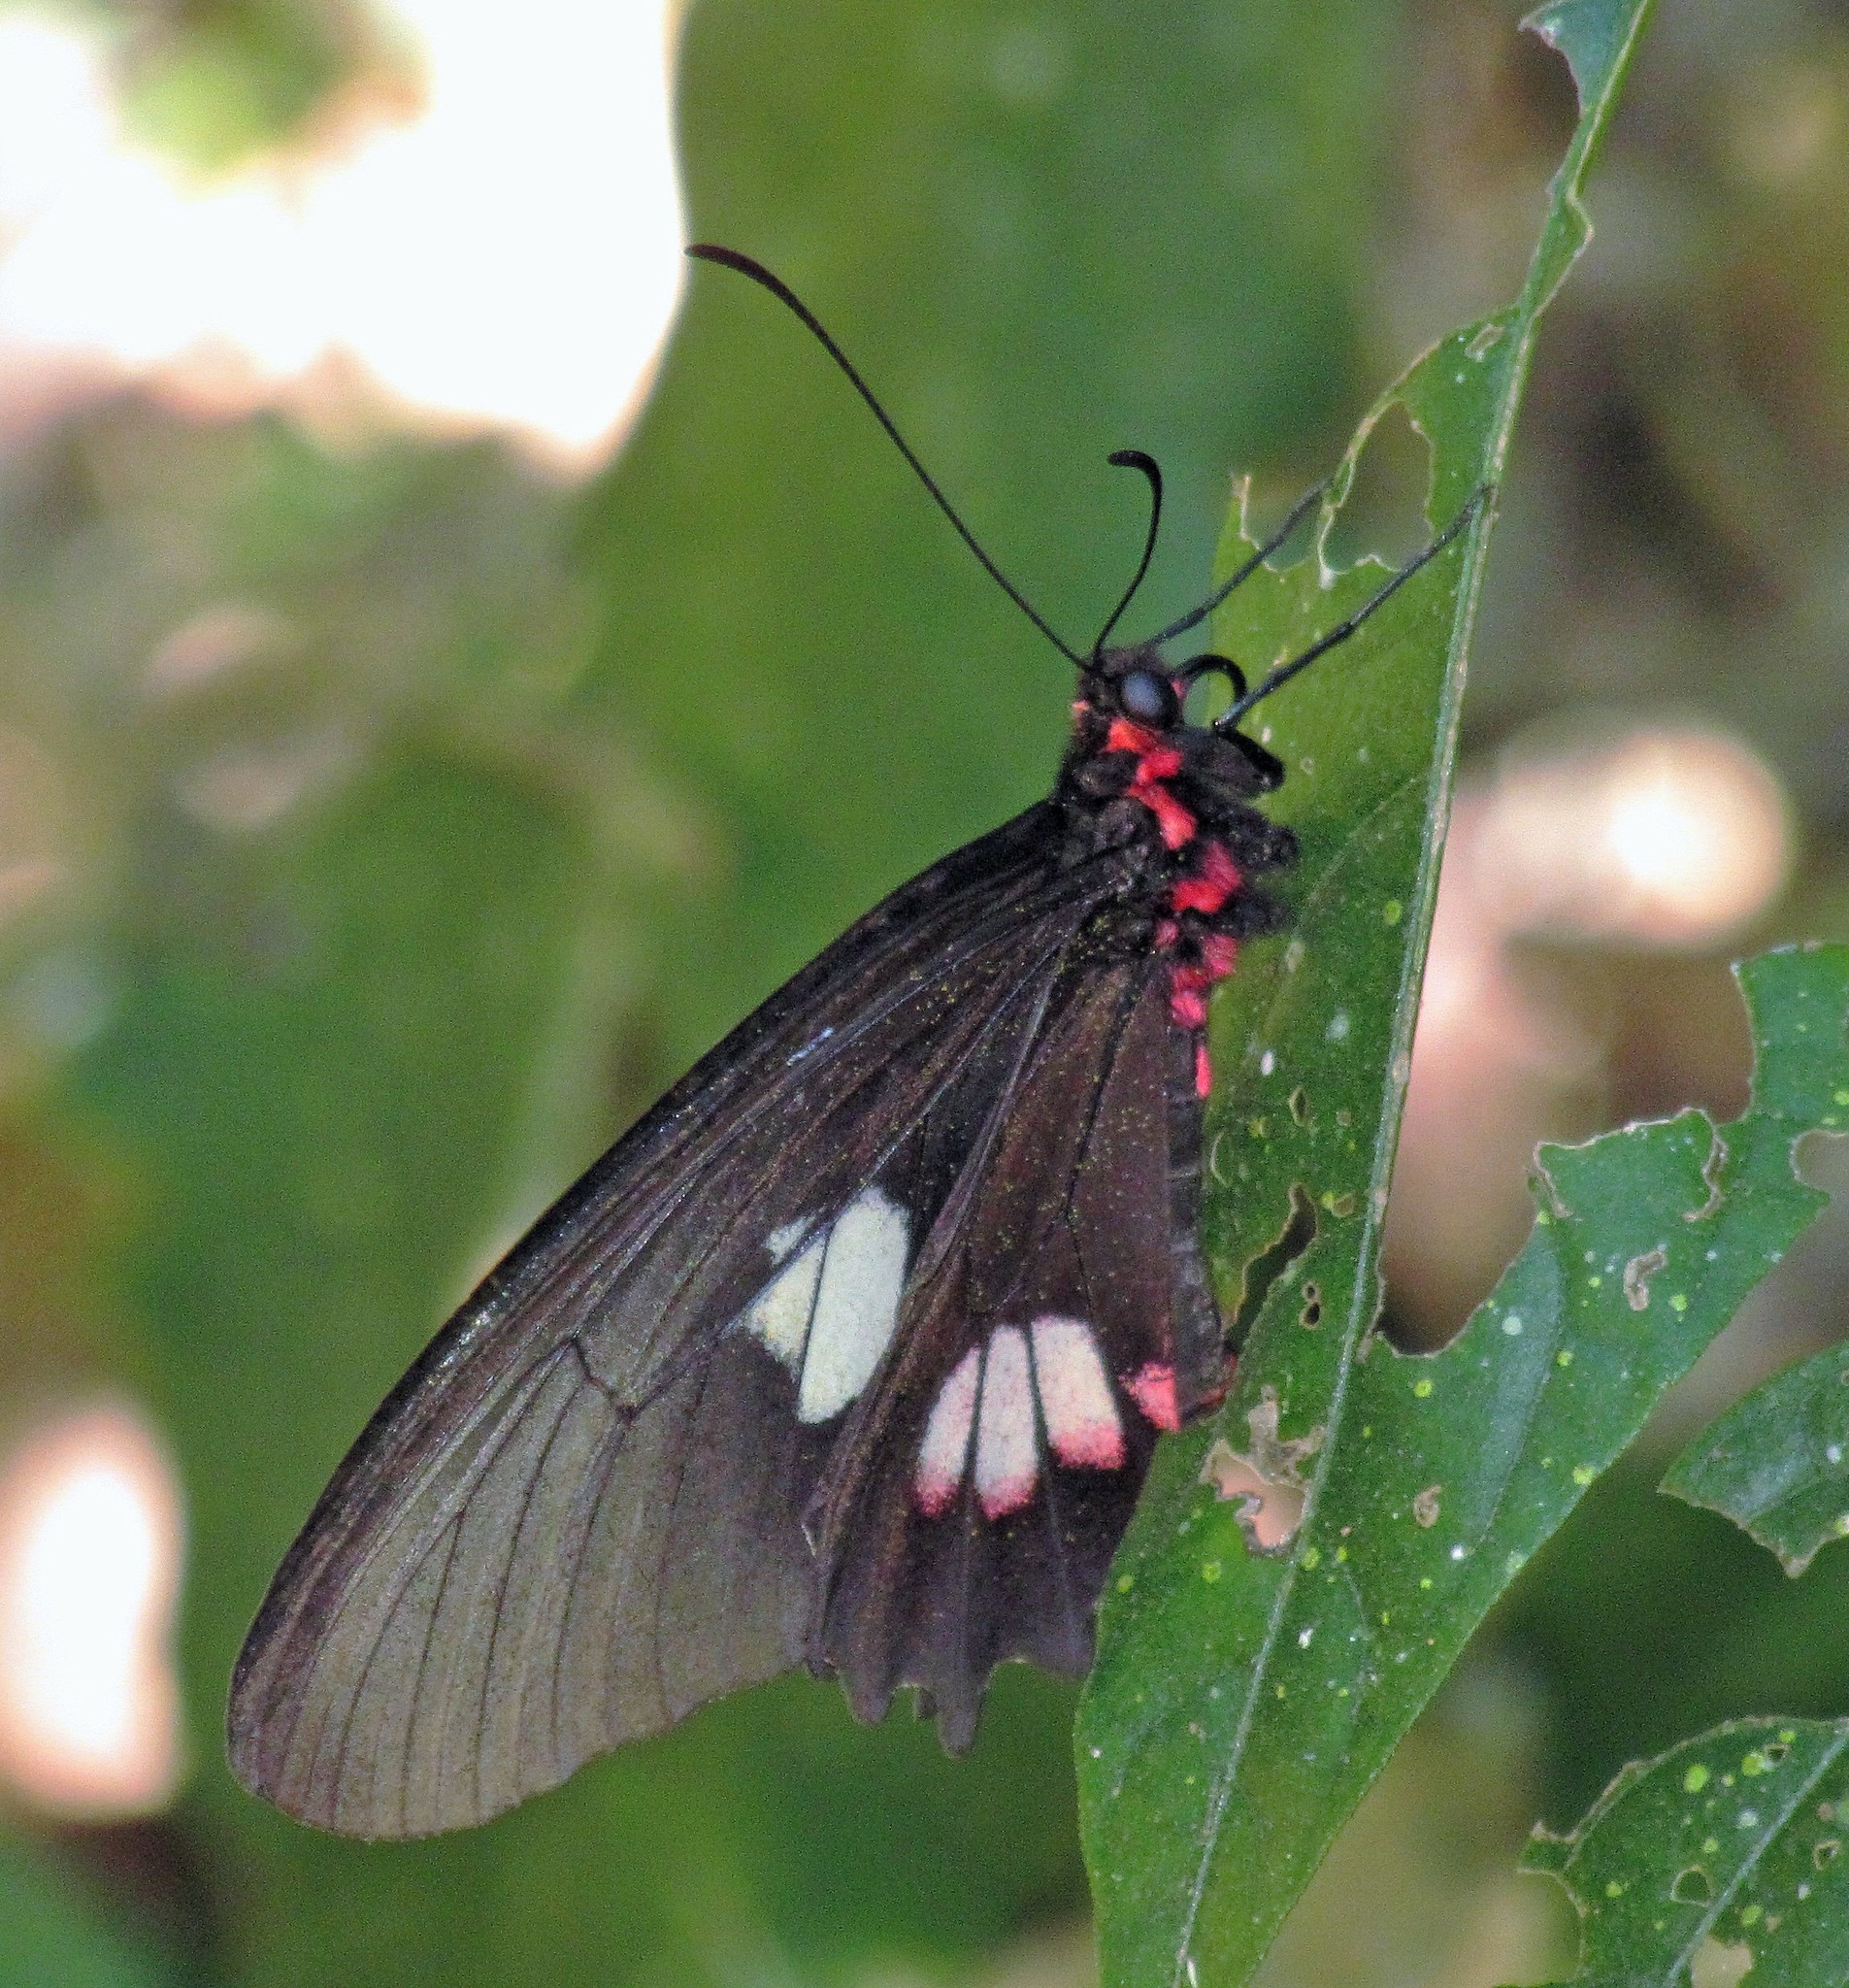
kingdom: Animalia
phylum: Arthropoda
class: Insecta
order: Lepidoptera
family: Papilionidae
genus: Parides
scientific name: Parides anchises
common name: Cattle heart
